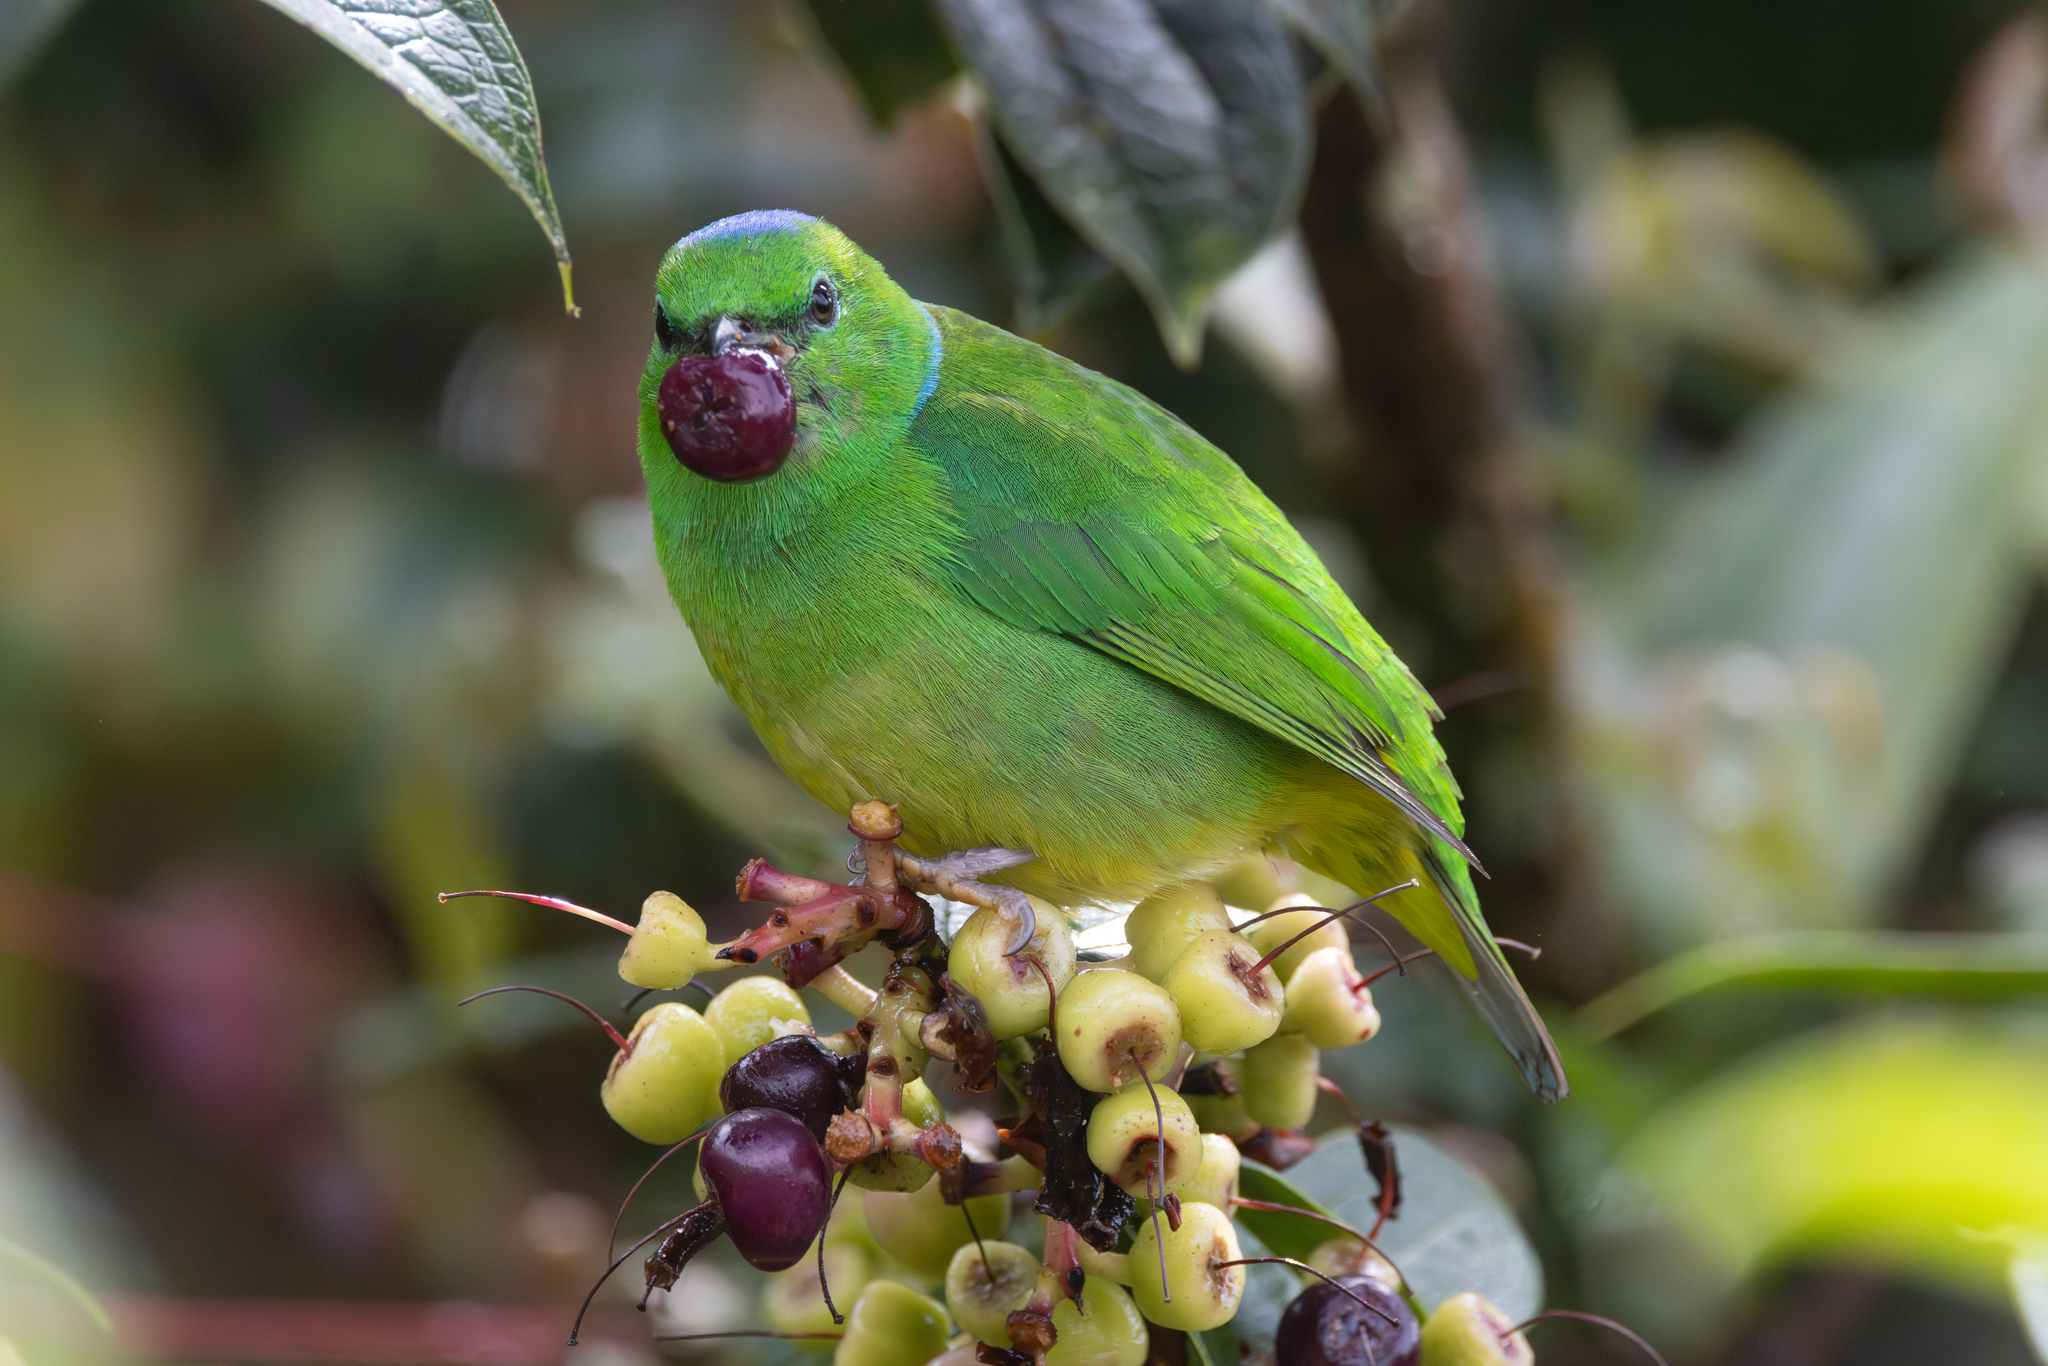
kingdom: Animalia
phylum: Chordata
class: Aves
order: Passeriformes
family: Fringillidae
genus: Chlorophonia
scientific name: Chlorophonia callophrys
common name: Golden-browed chlorophonia
